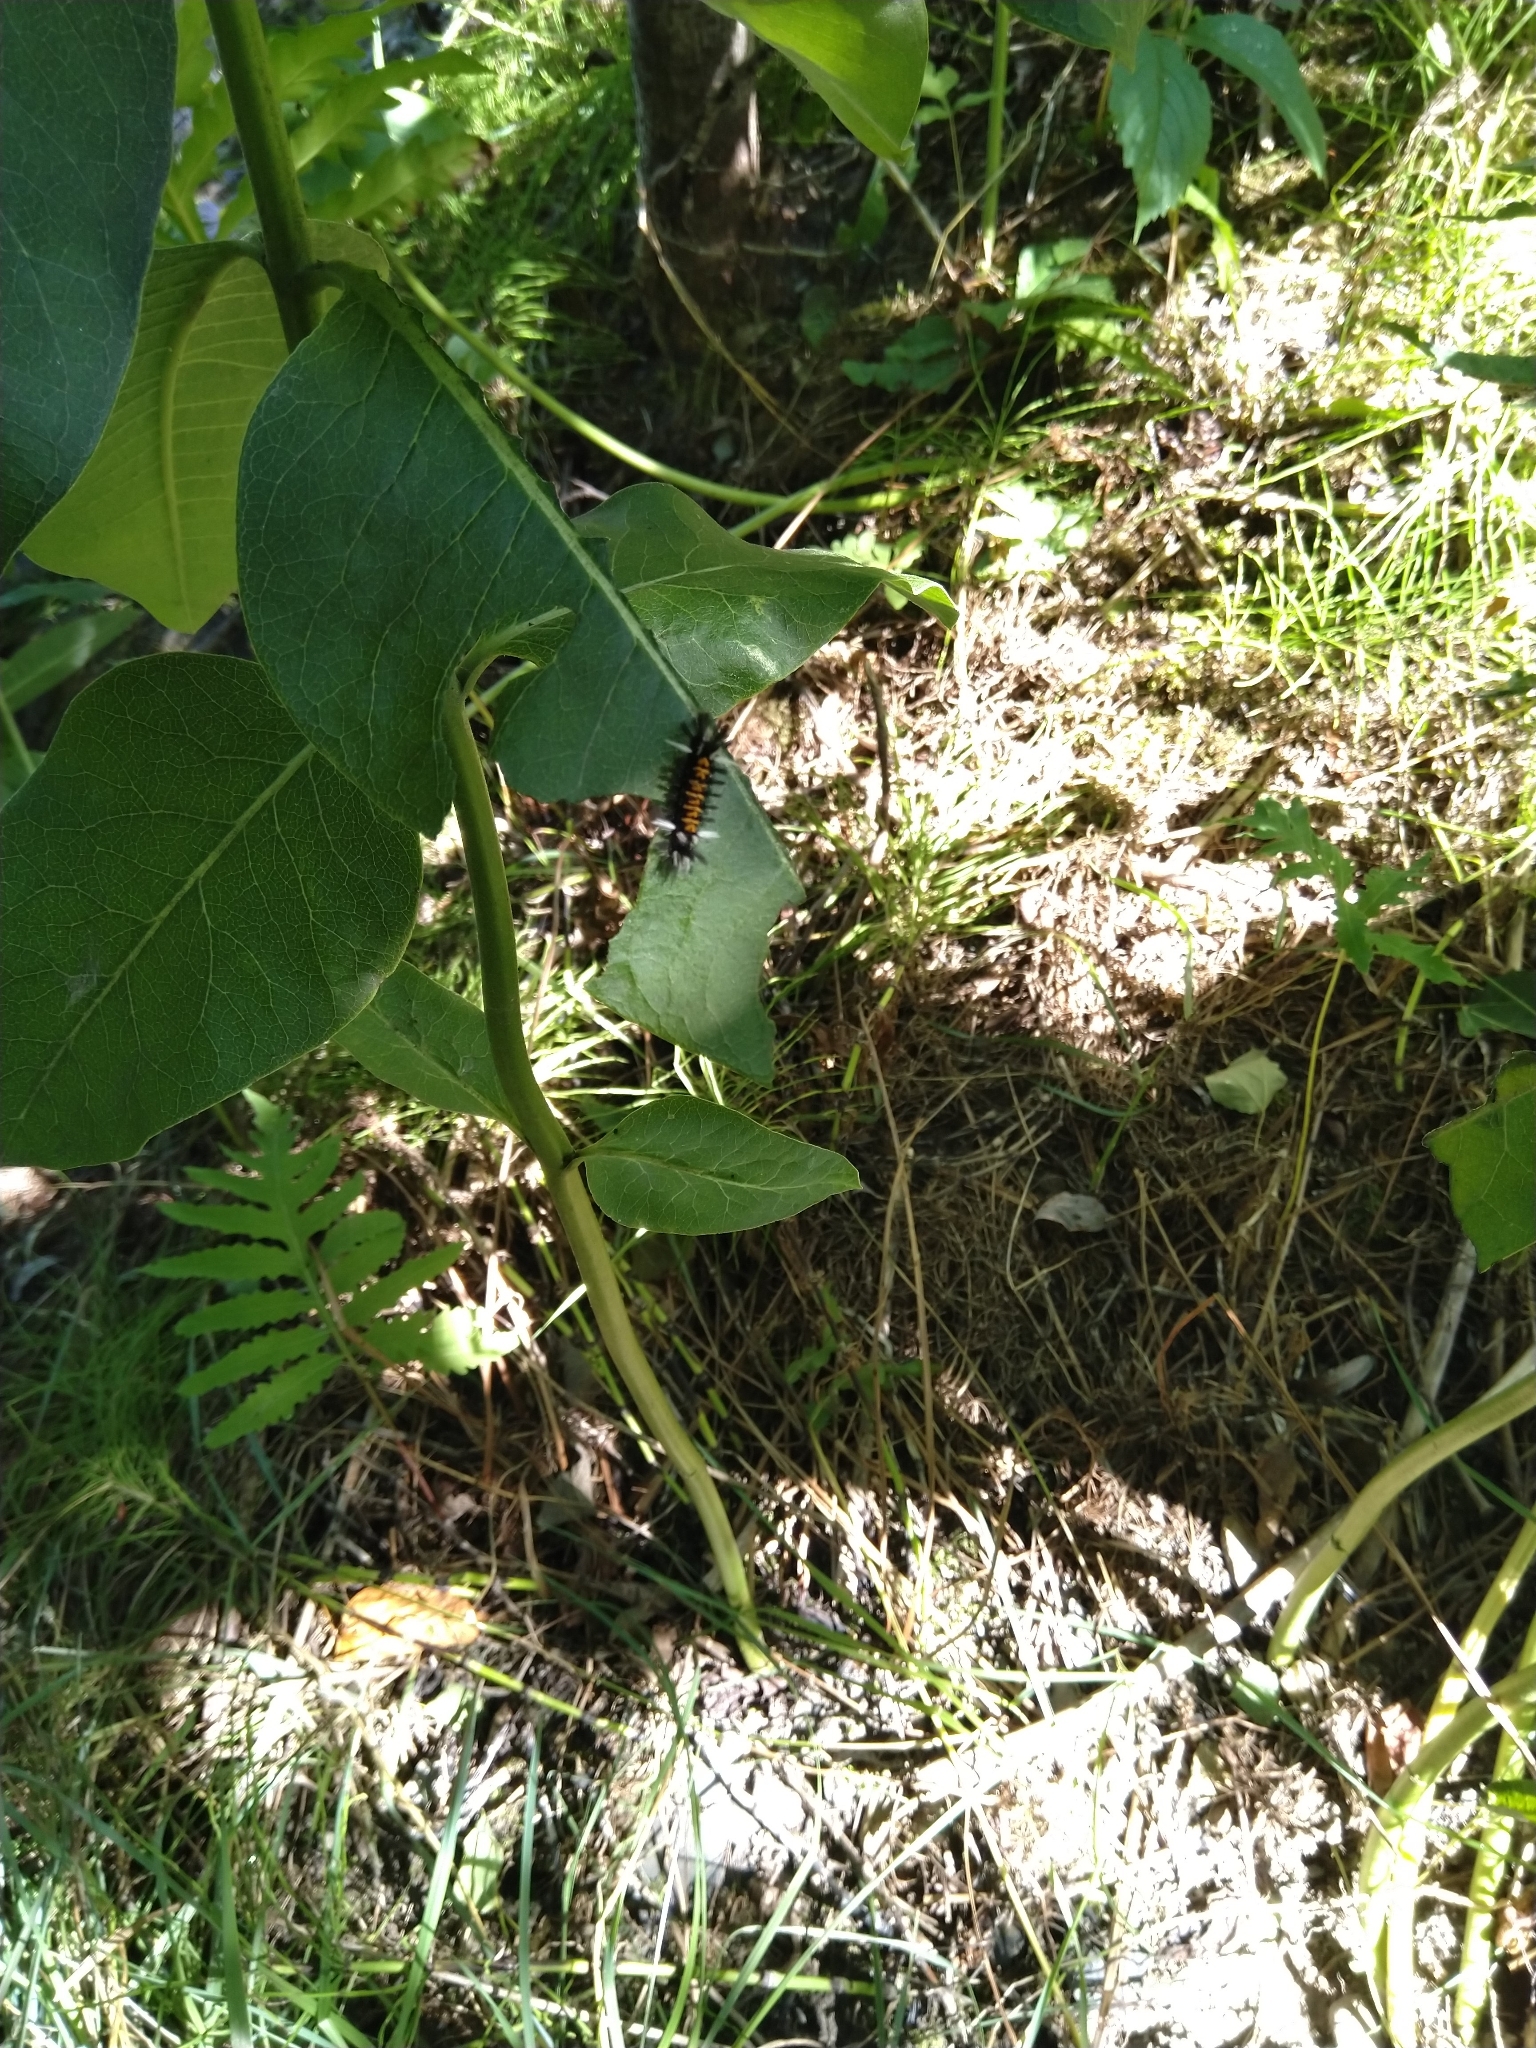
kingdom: Animalia
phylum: Arthropoda
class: Insecta
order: Lepidoptera
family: Erebidae
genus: Euchaetes
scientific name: Euchaetes egle
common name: Milkweed tussock moth
